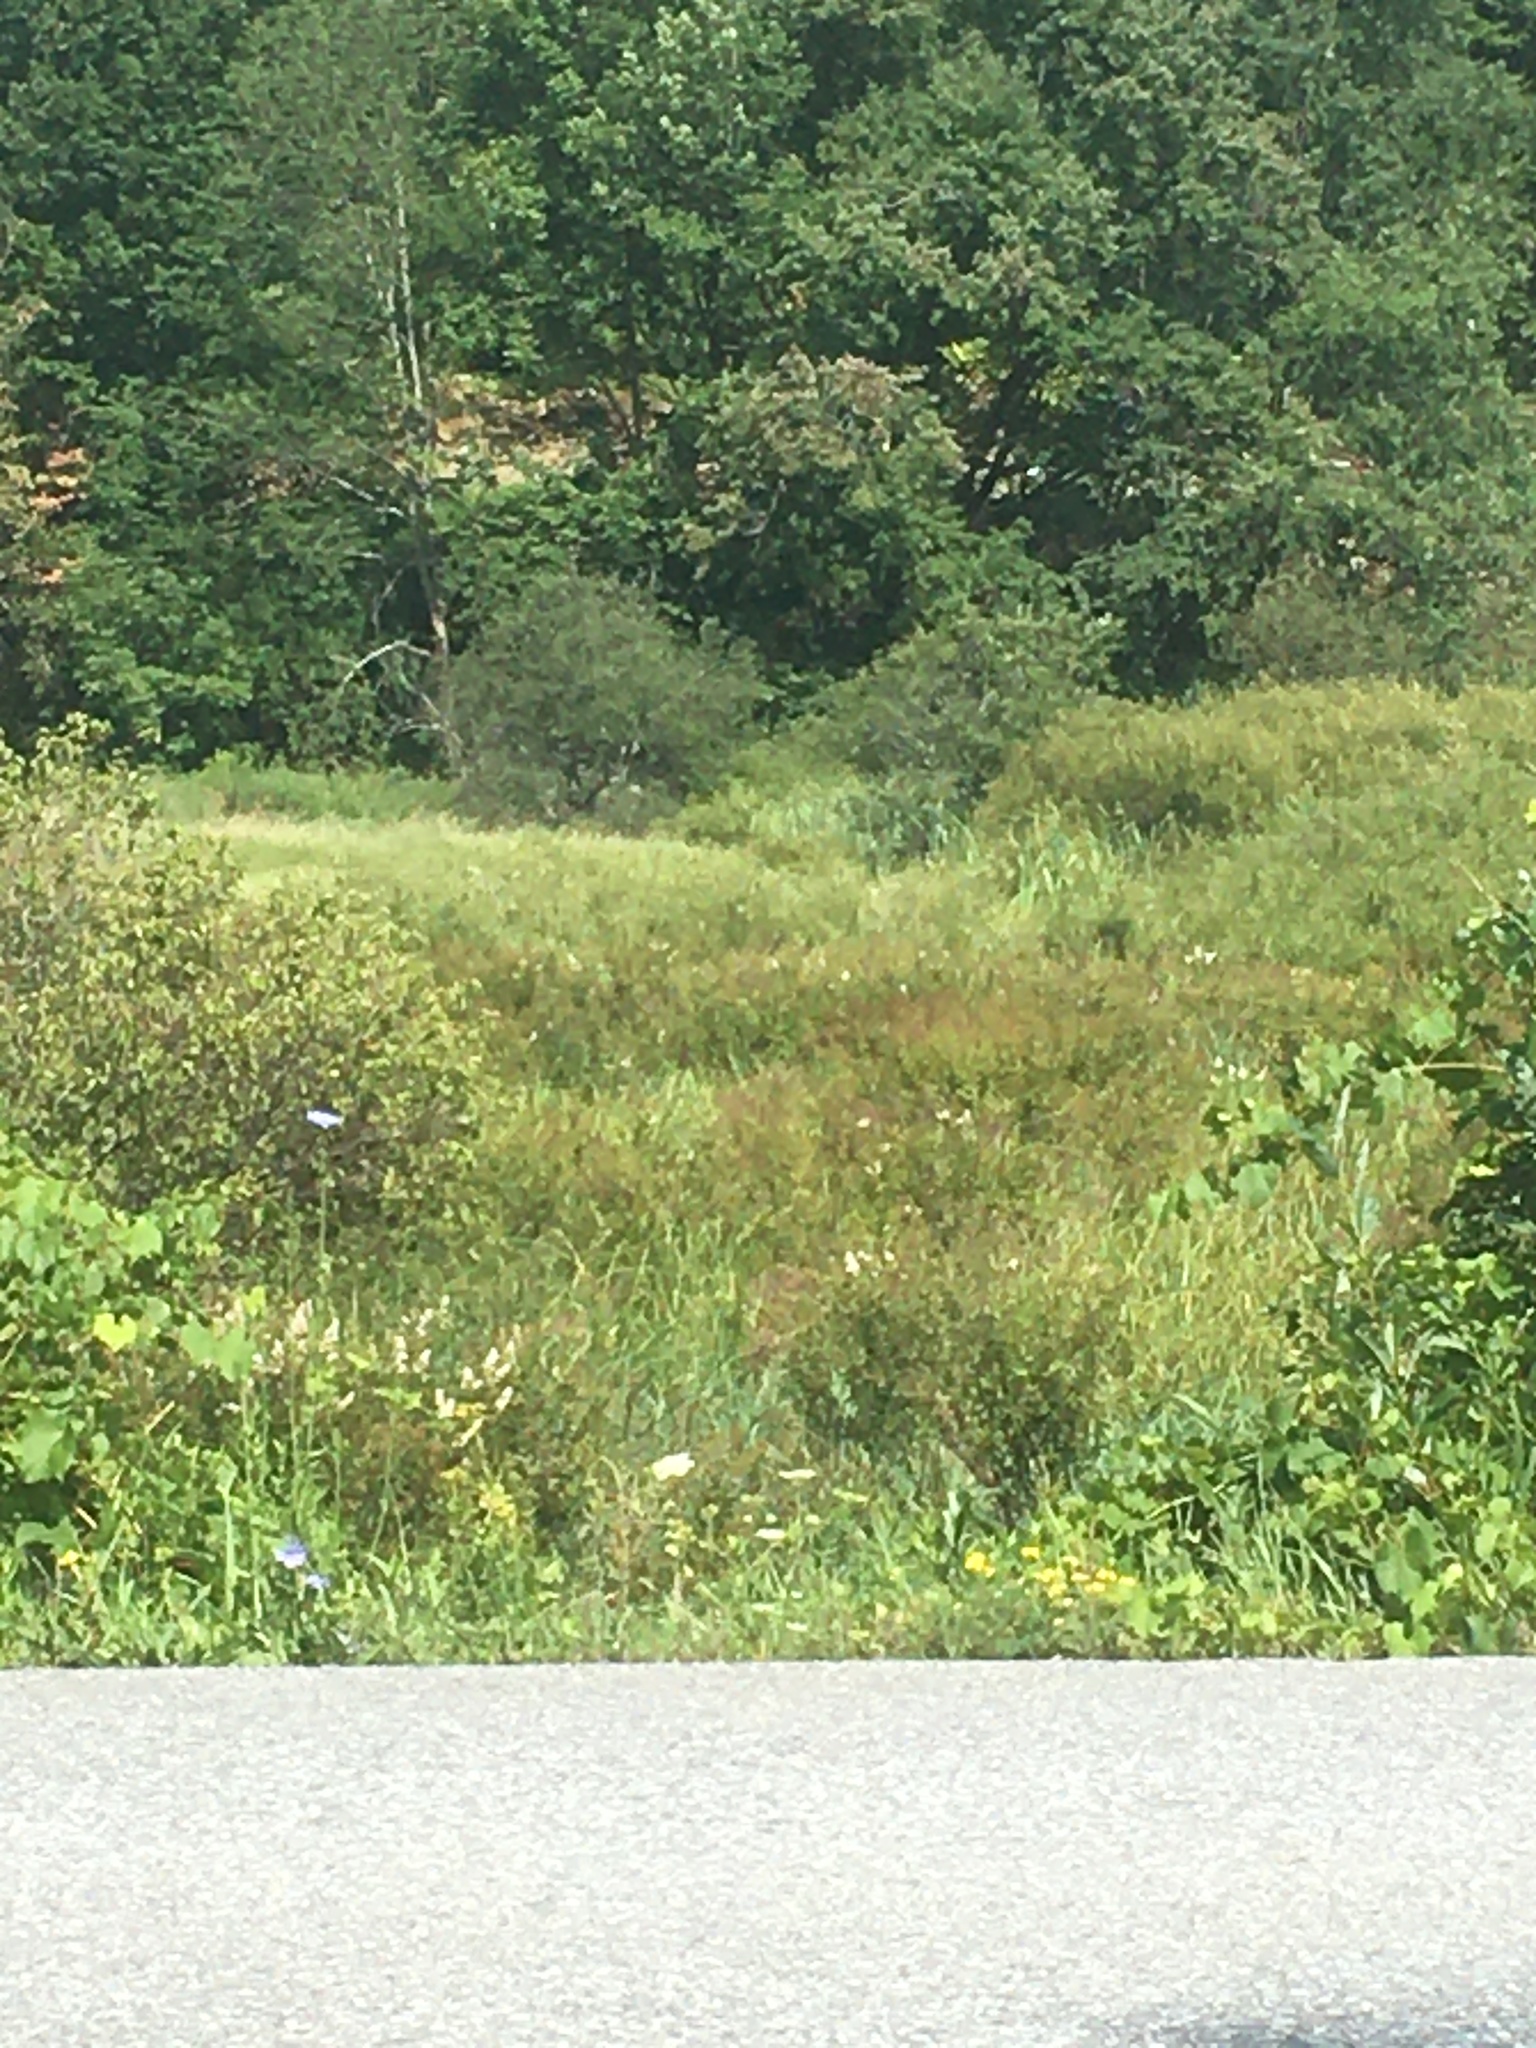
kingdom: Plantae
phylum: Tracheophyta
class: Magnoliopsida
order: Rosales
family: Rosaceae
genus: Spiraea
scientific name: Spiraea alba
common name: Pale bridewort
